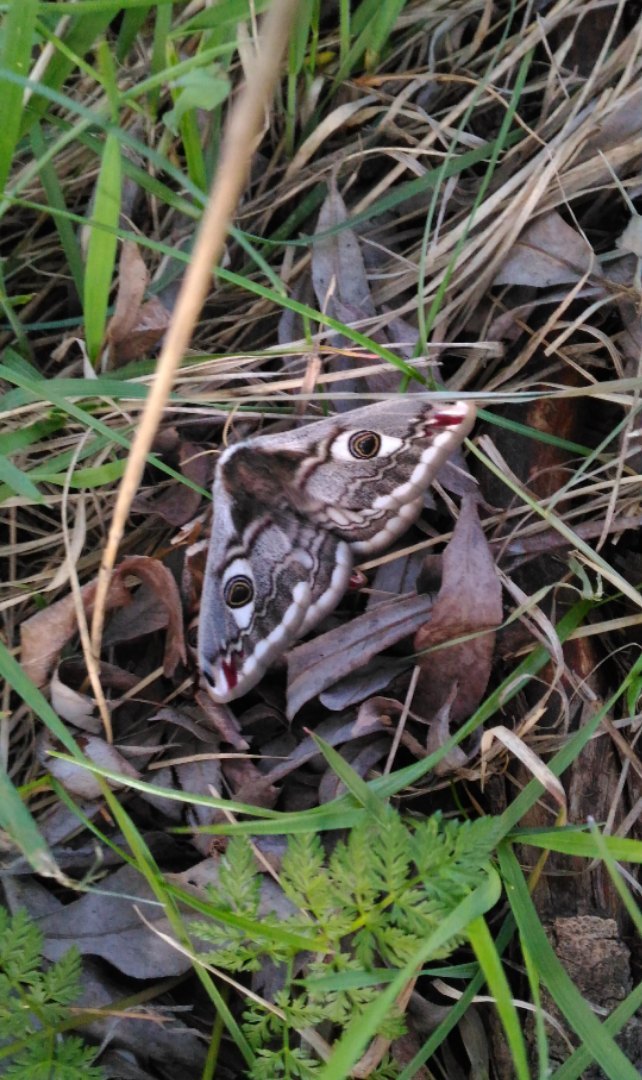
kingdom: Animalia
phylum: Arthropoda
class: Insecta
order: Lepidoptera
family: Saturniidae
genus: Saturnia
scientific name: Saturnia pavonia
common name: Emperor moth
